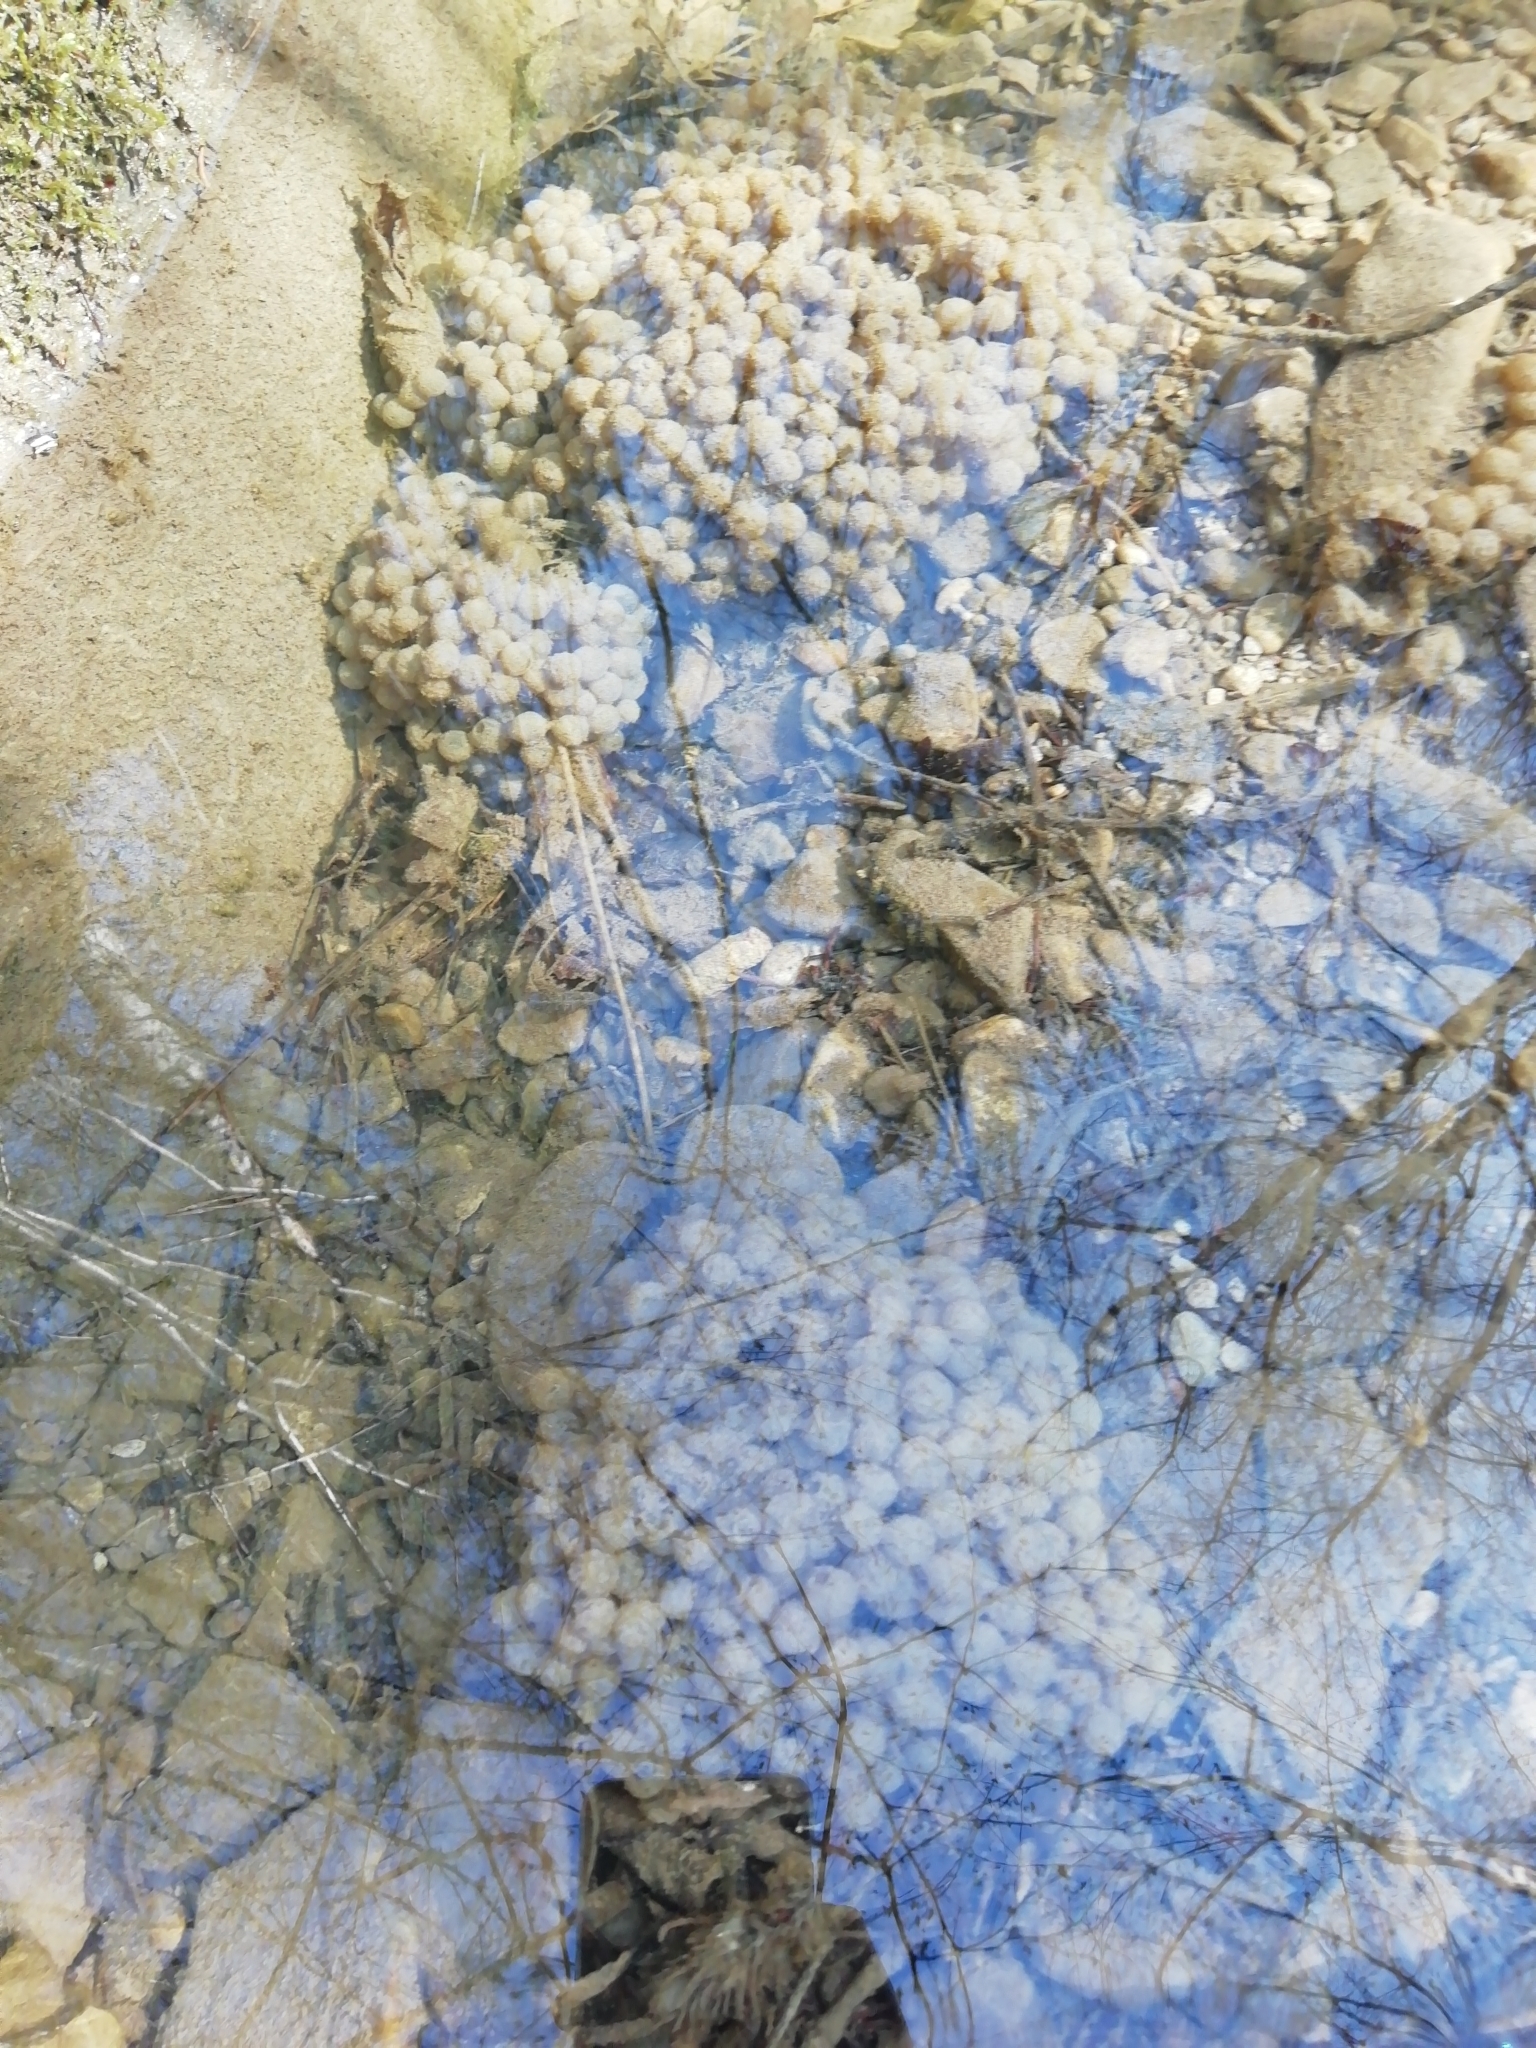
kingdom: Animalia
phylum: Chordata
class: Amphibia
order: Anura
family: Ranidae
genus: Rana
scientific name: Rana temporaria
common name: Common frog
